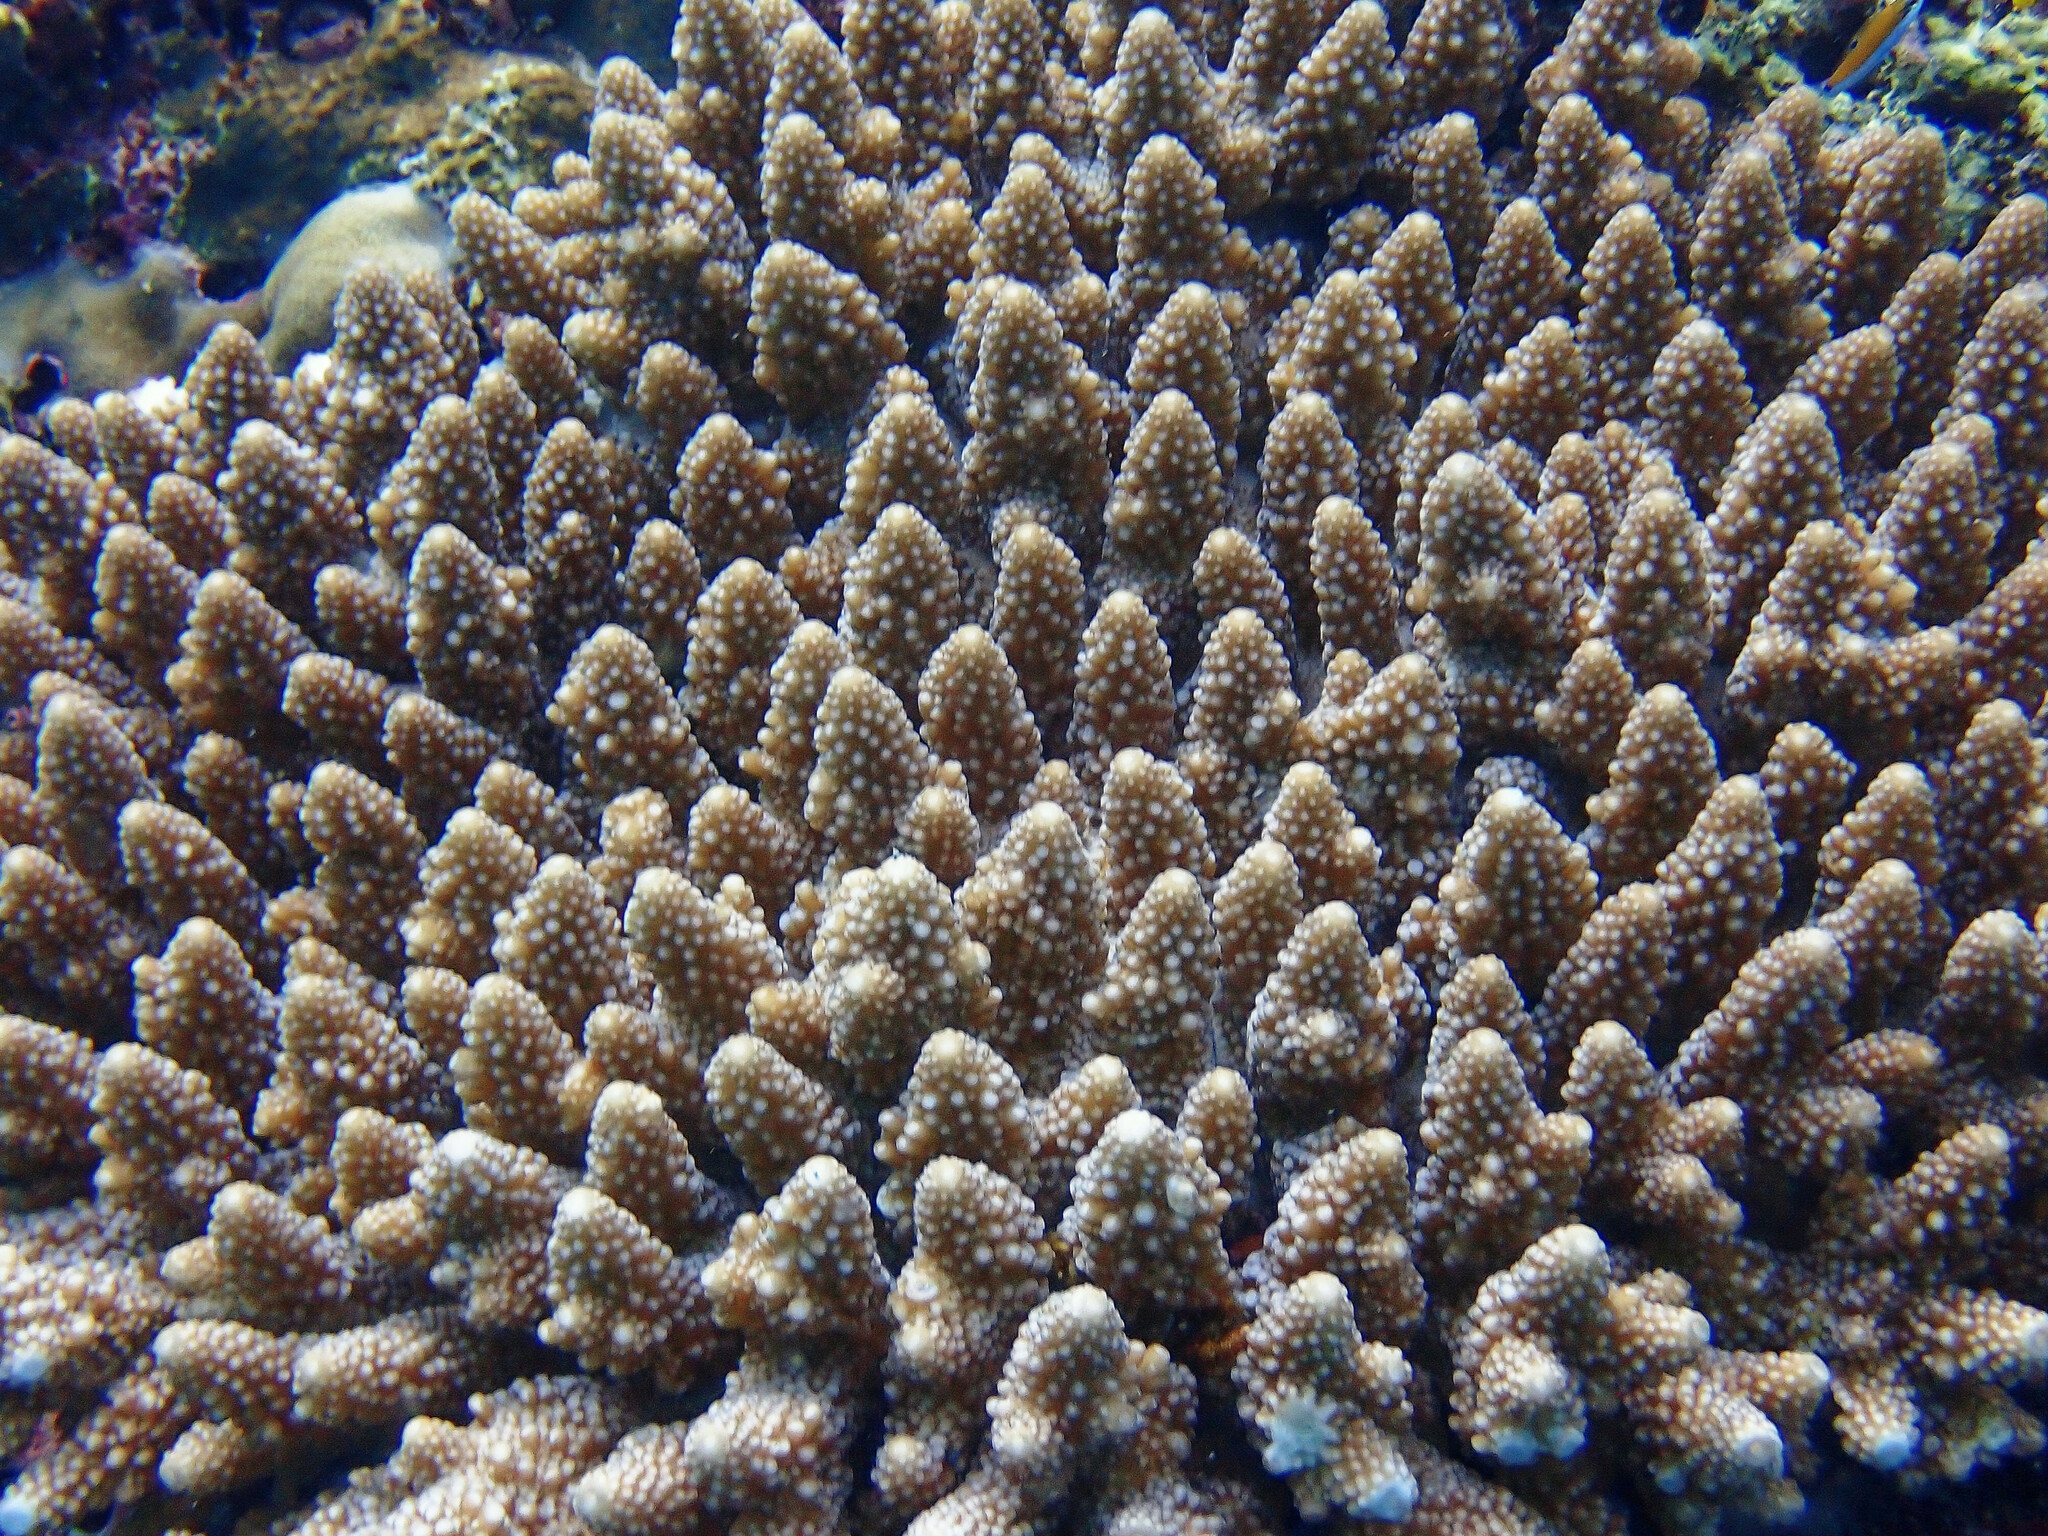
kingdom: Animalia
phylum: Cnidaria
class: Anthozoa
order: Scleractinia
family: Acroporidae
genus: Acropora
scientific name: Acropora gemmifera
